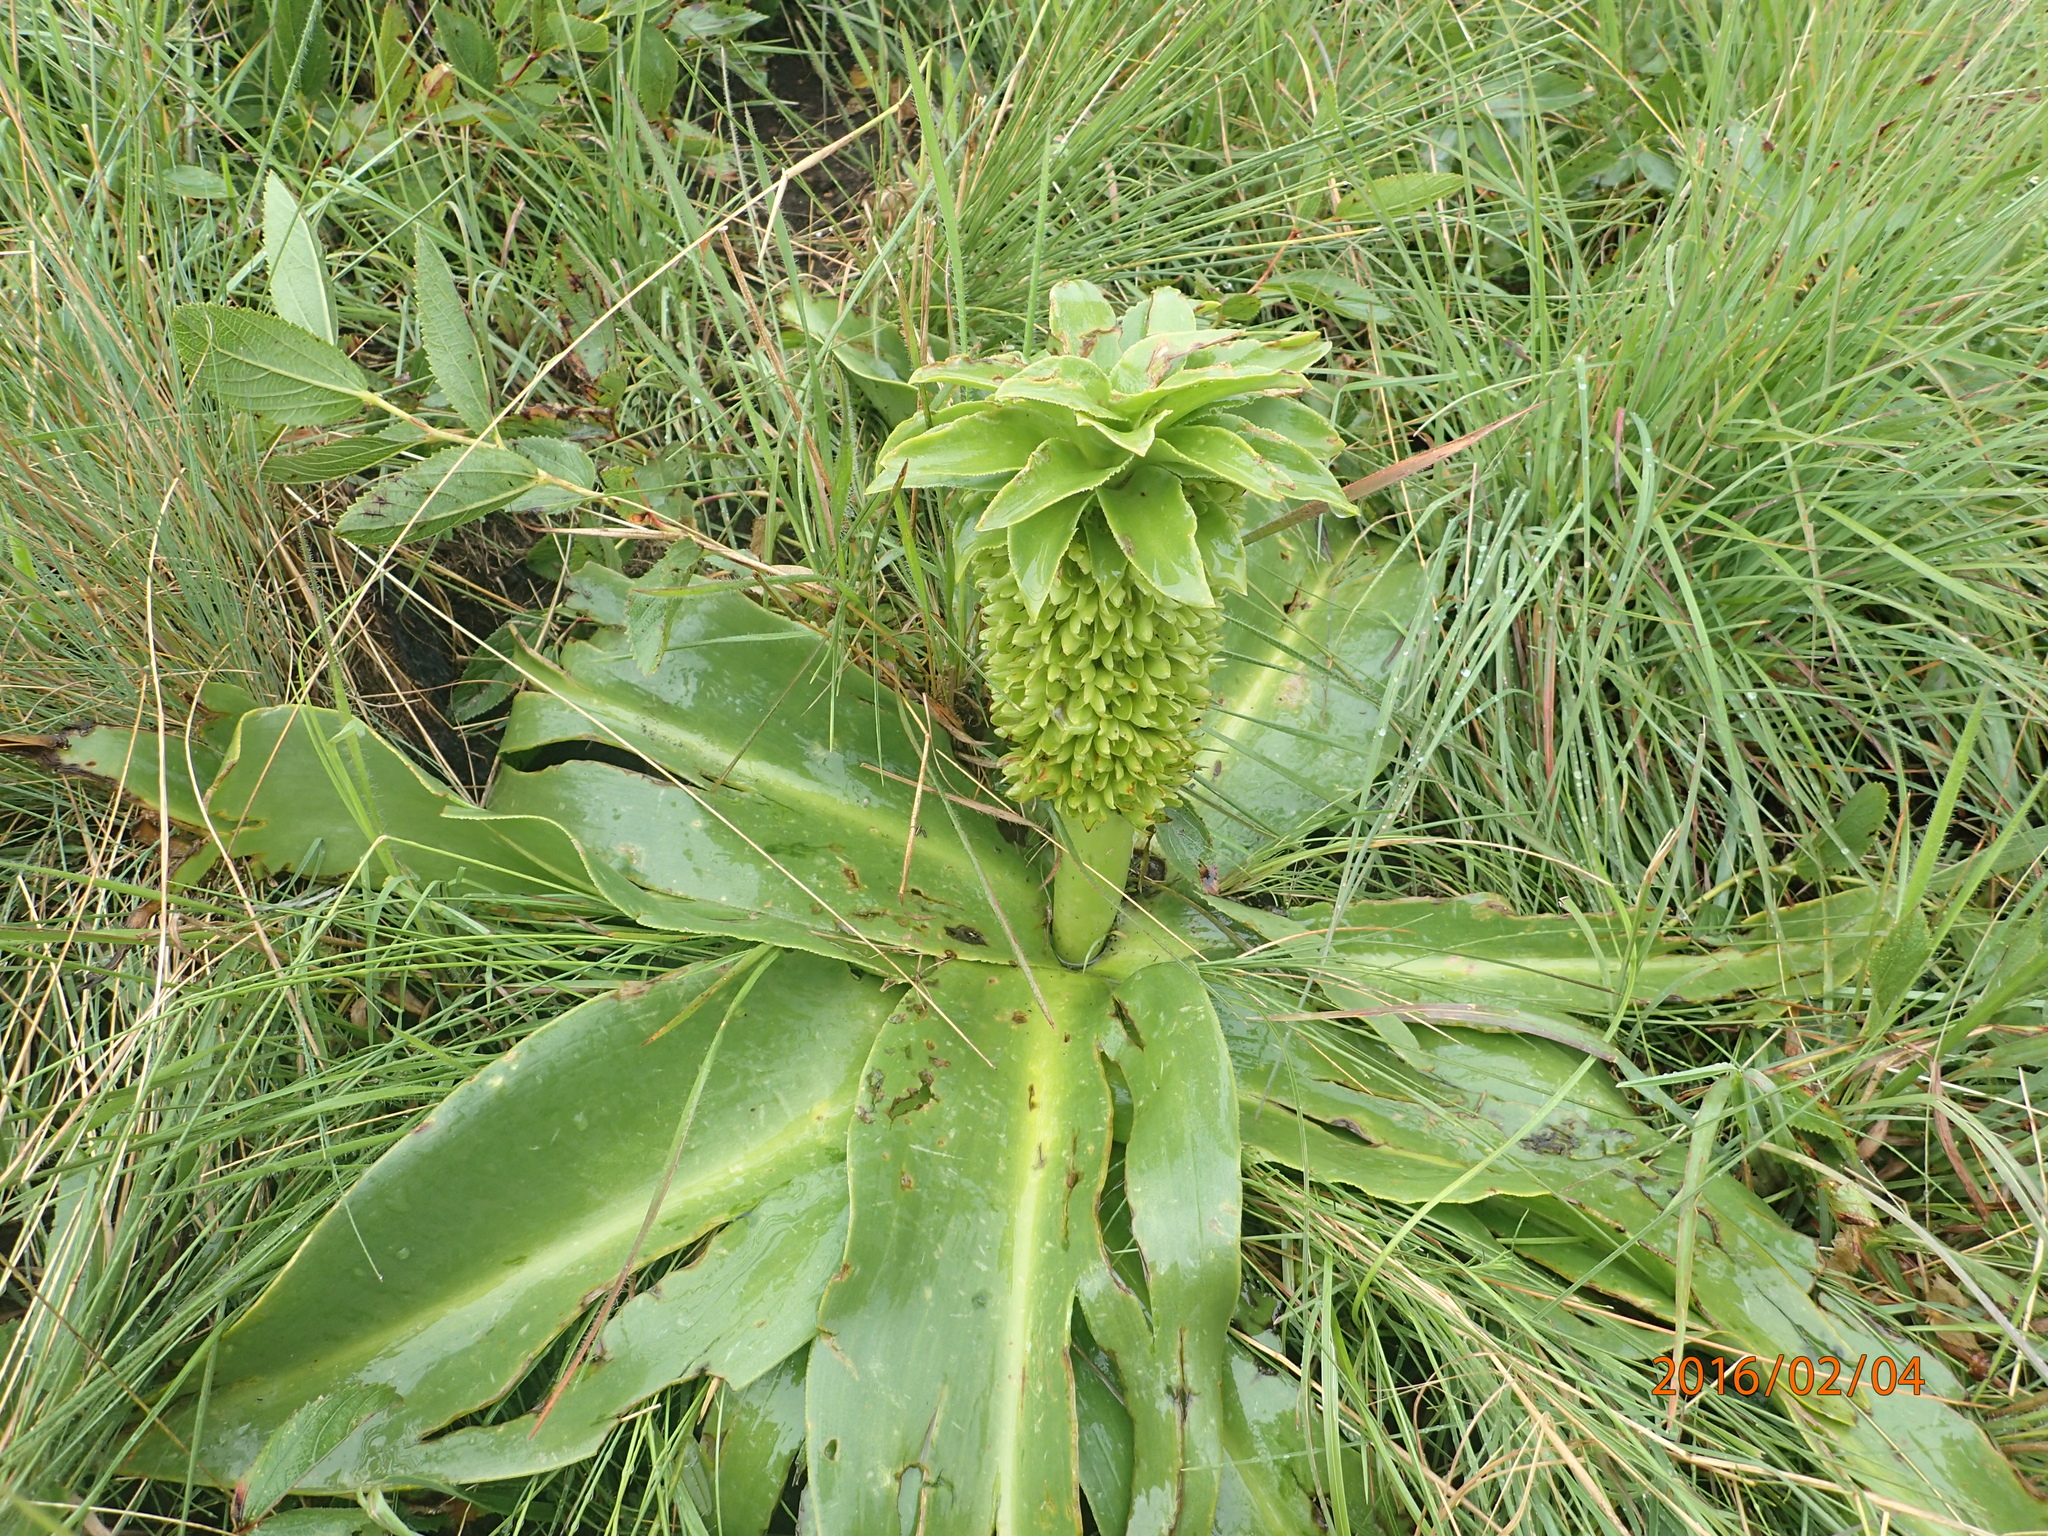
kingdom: Plantae
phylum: Tracheophyta
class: Liliopsida
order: Asparagales
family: Asparagaceae
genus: Eucomis
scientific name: Eucomis autumnalis
